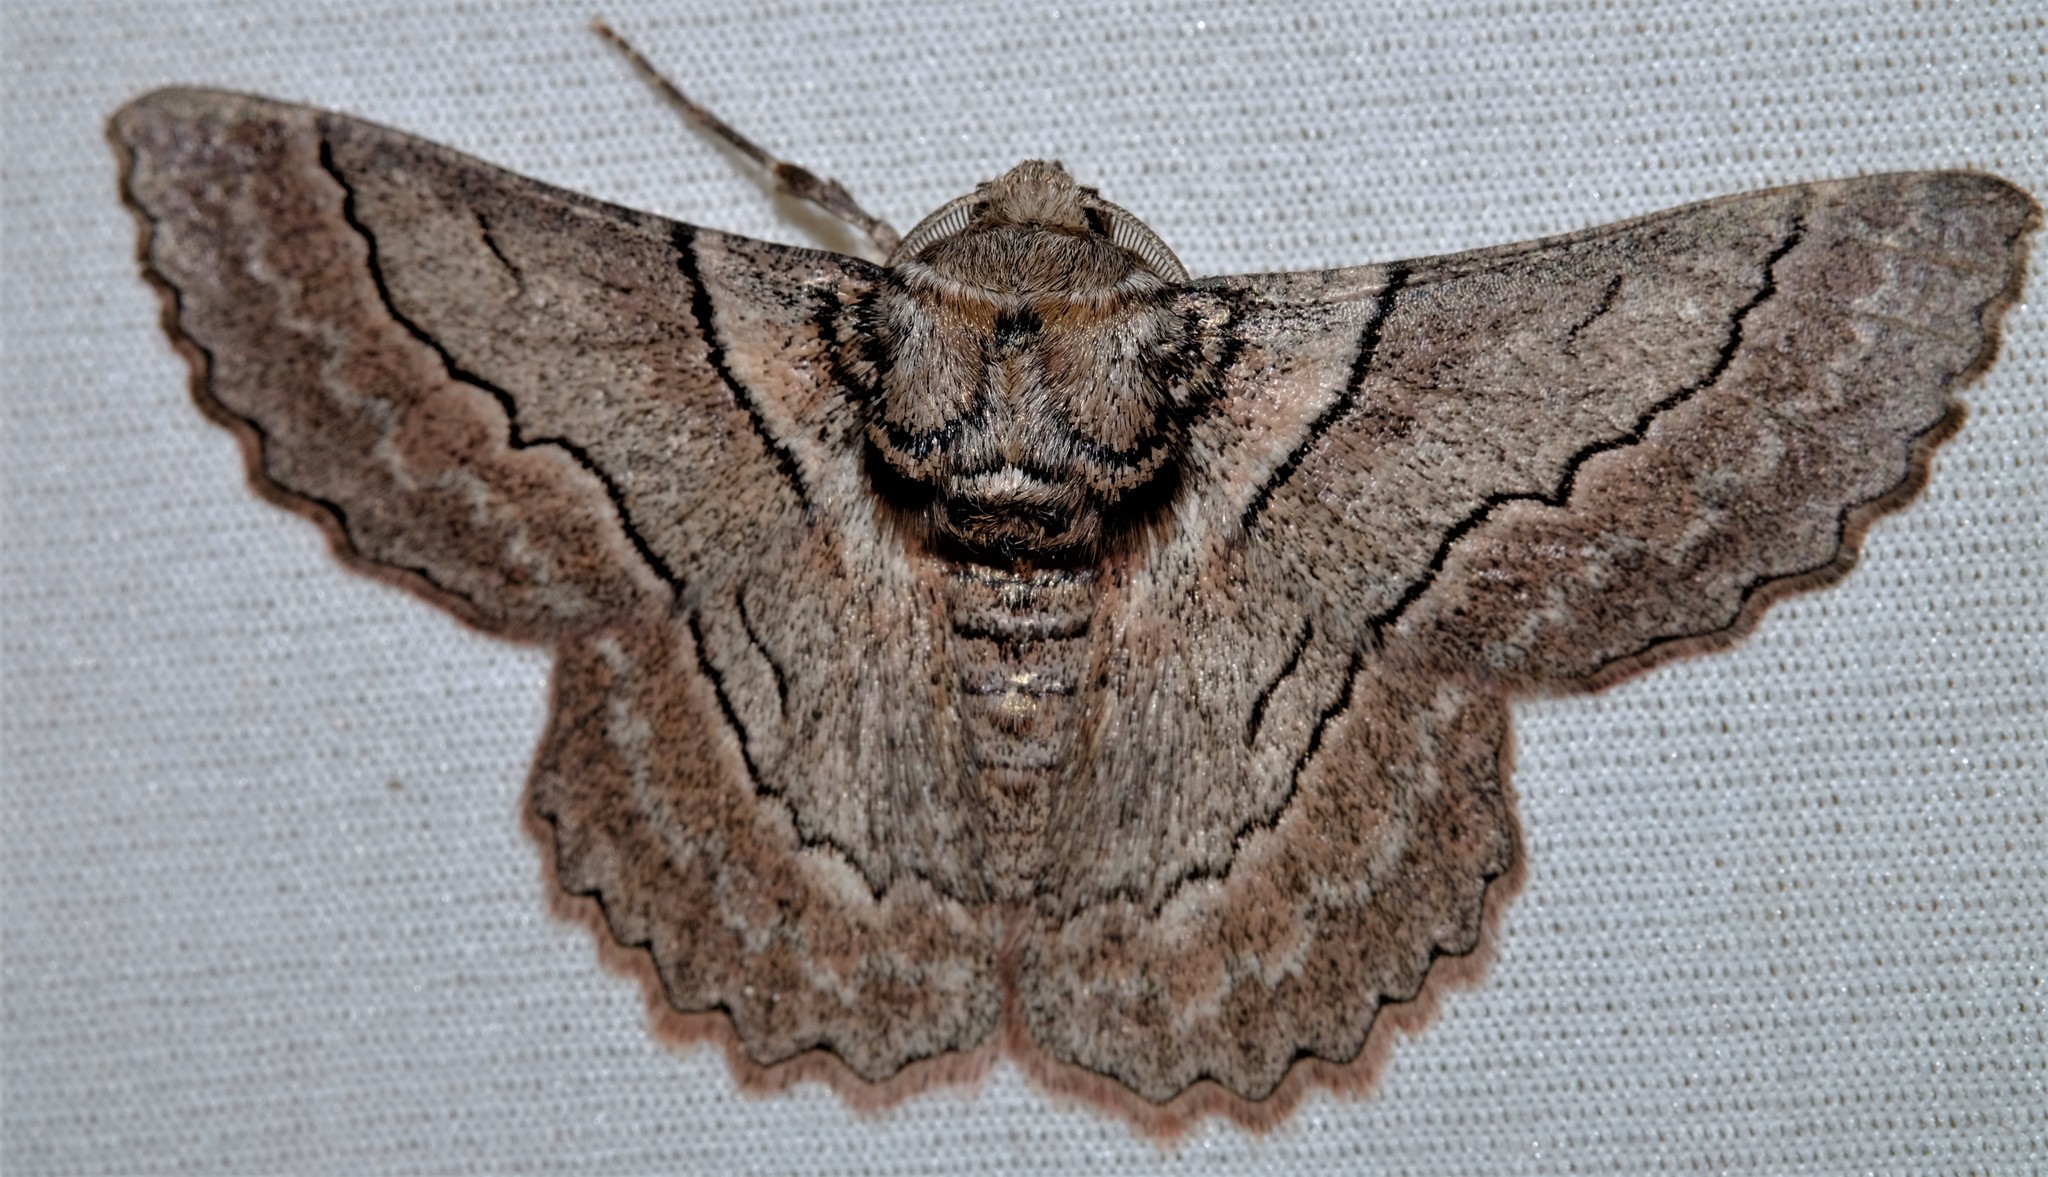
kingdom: Animalia
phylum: Arthropoda
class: Insecta
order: Lepidoptera
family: Geometridae
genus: Hypobapta
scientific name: Hypobapta tachyhalotaria
